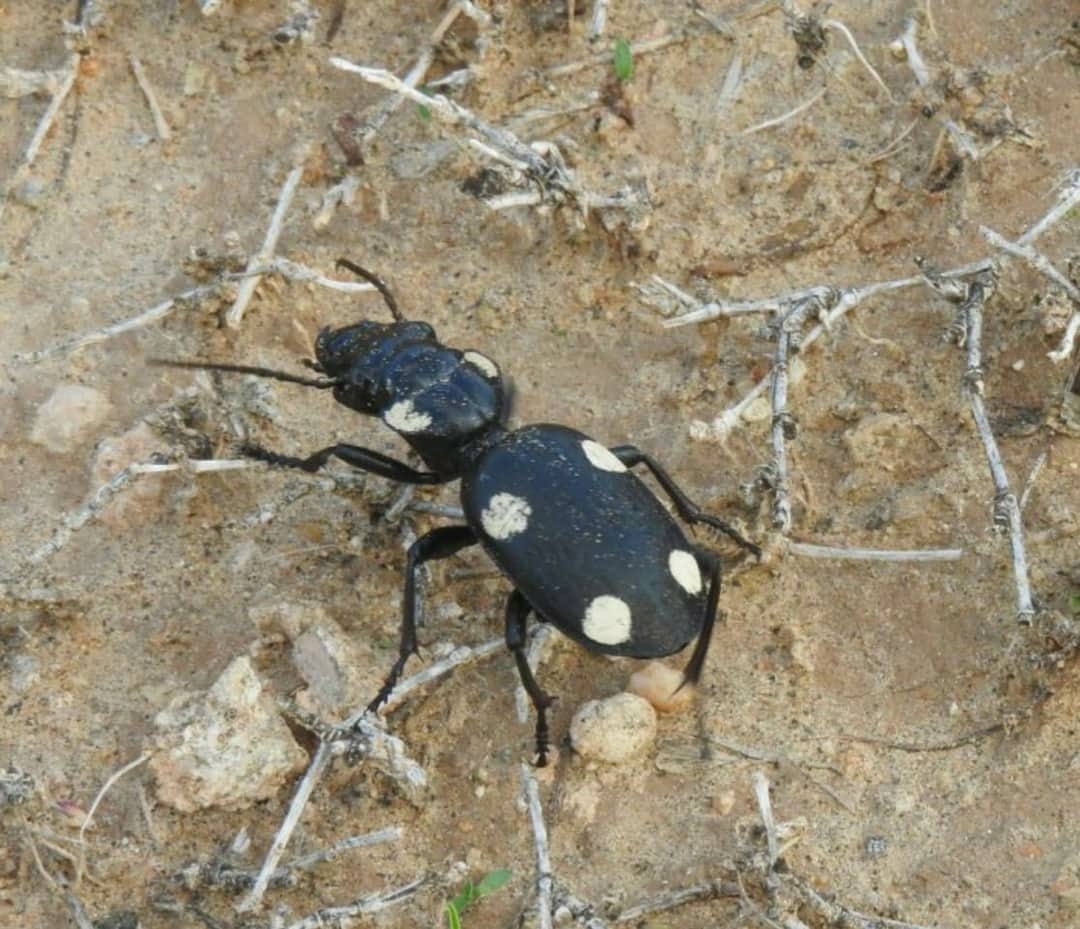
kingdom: Animalia
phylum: Arthropoda
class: Insecta
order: Coleoptera
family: Carabidae
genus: Anthia
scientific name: Anthia sexguttata
